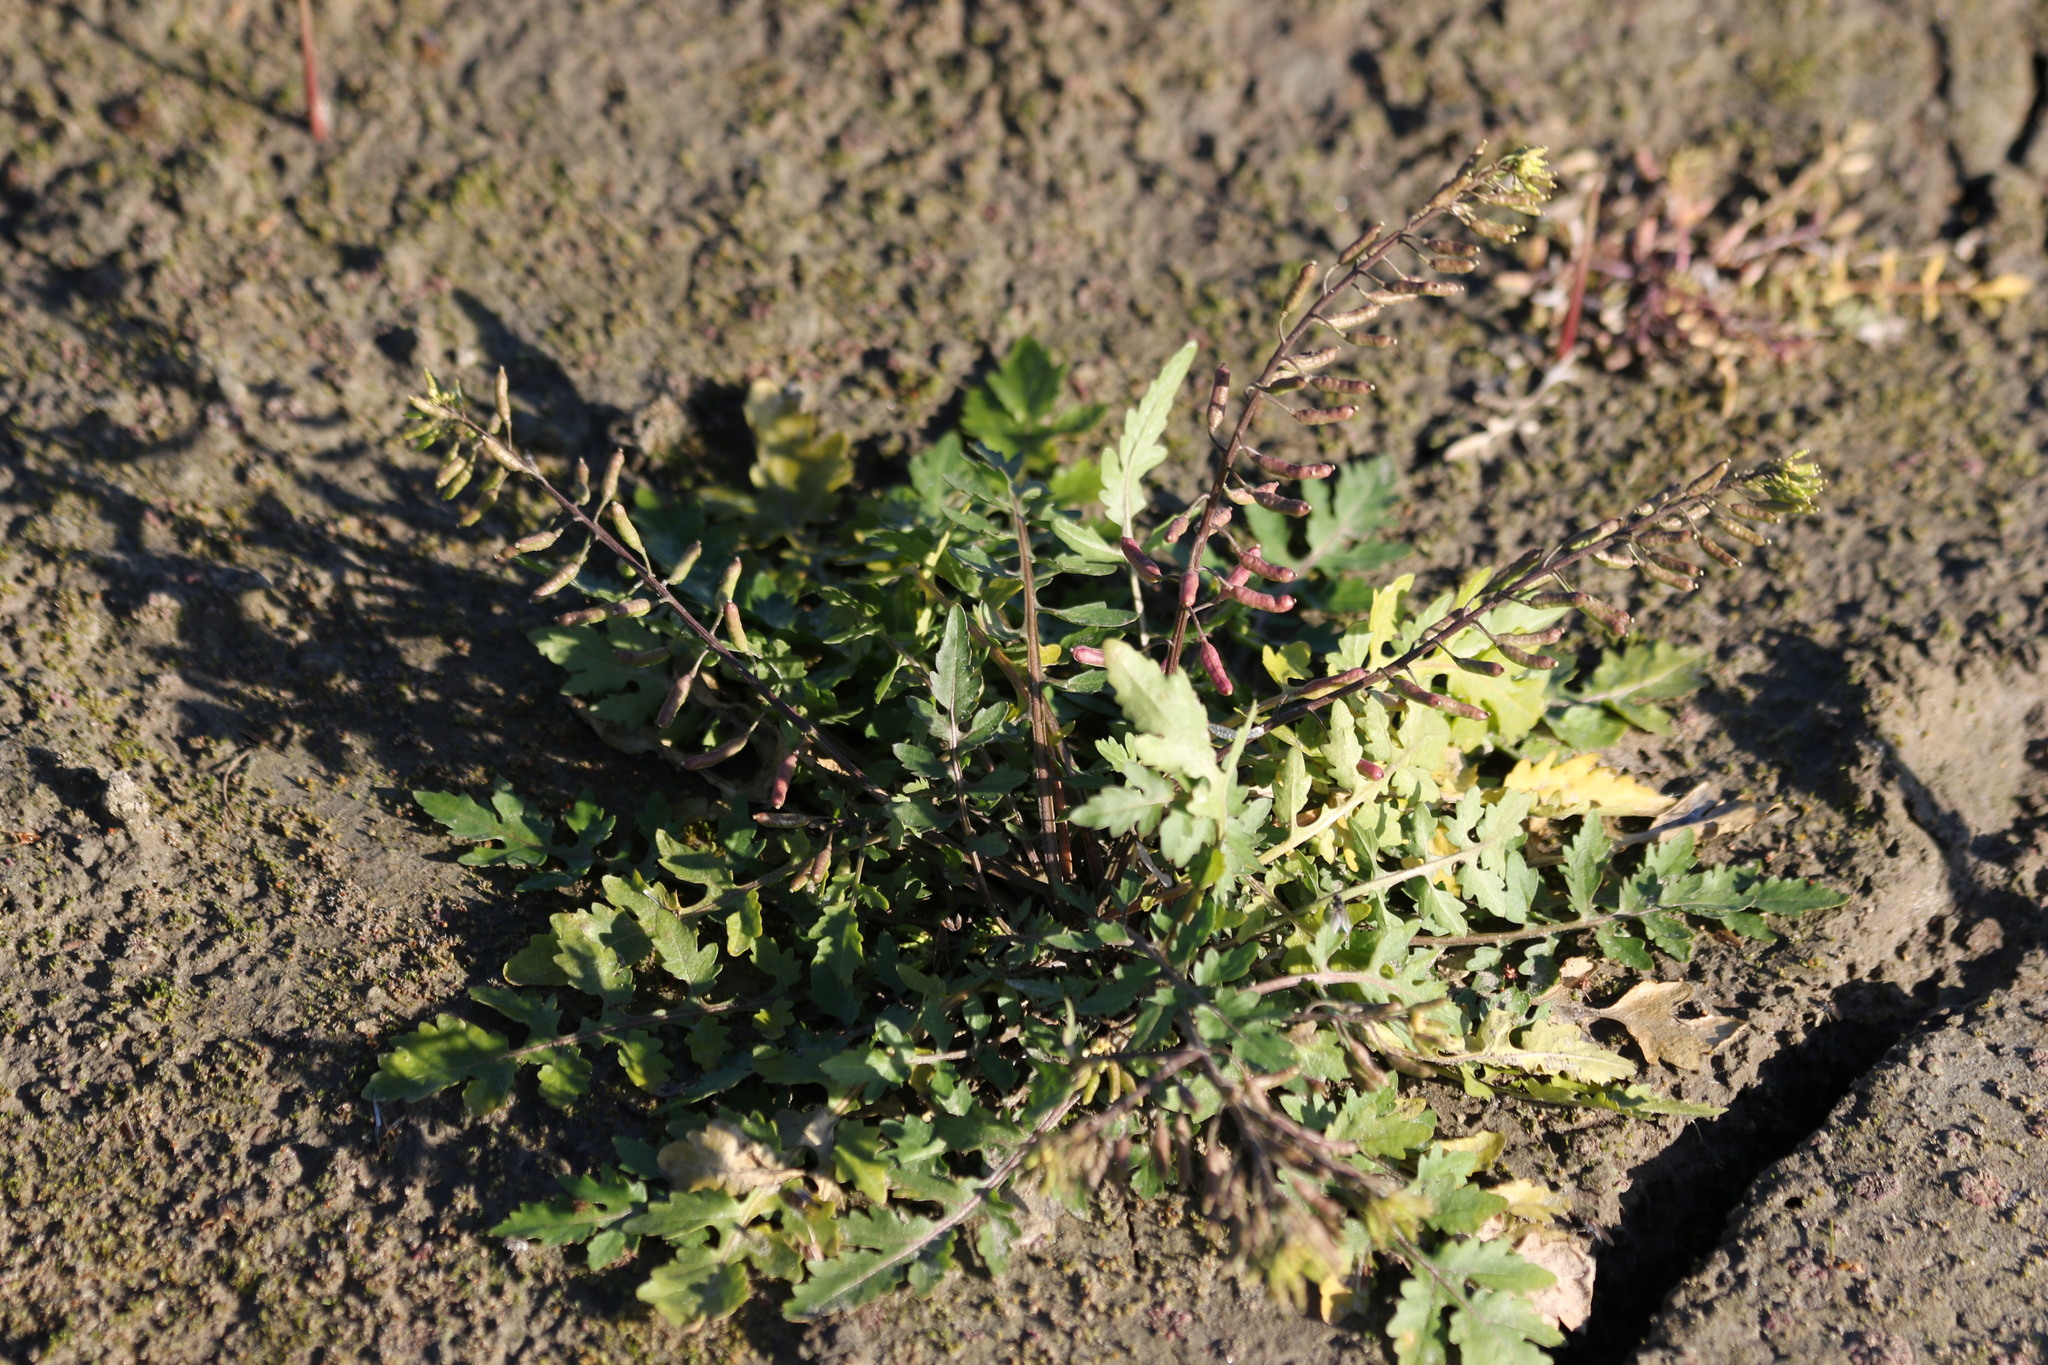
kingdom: Plantae
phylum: Tracheophyta
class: Magnoliopsida
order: Brassicales
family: Brassicaceae
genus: Rorippa
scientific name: Rorippa palustris
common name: Marsh yellow-cress
